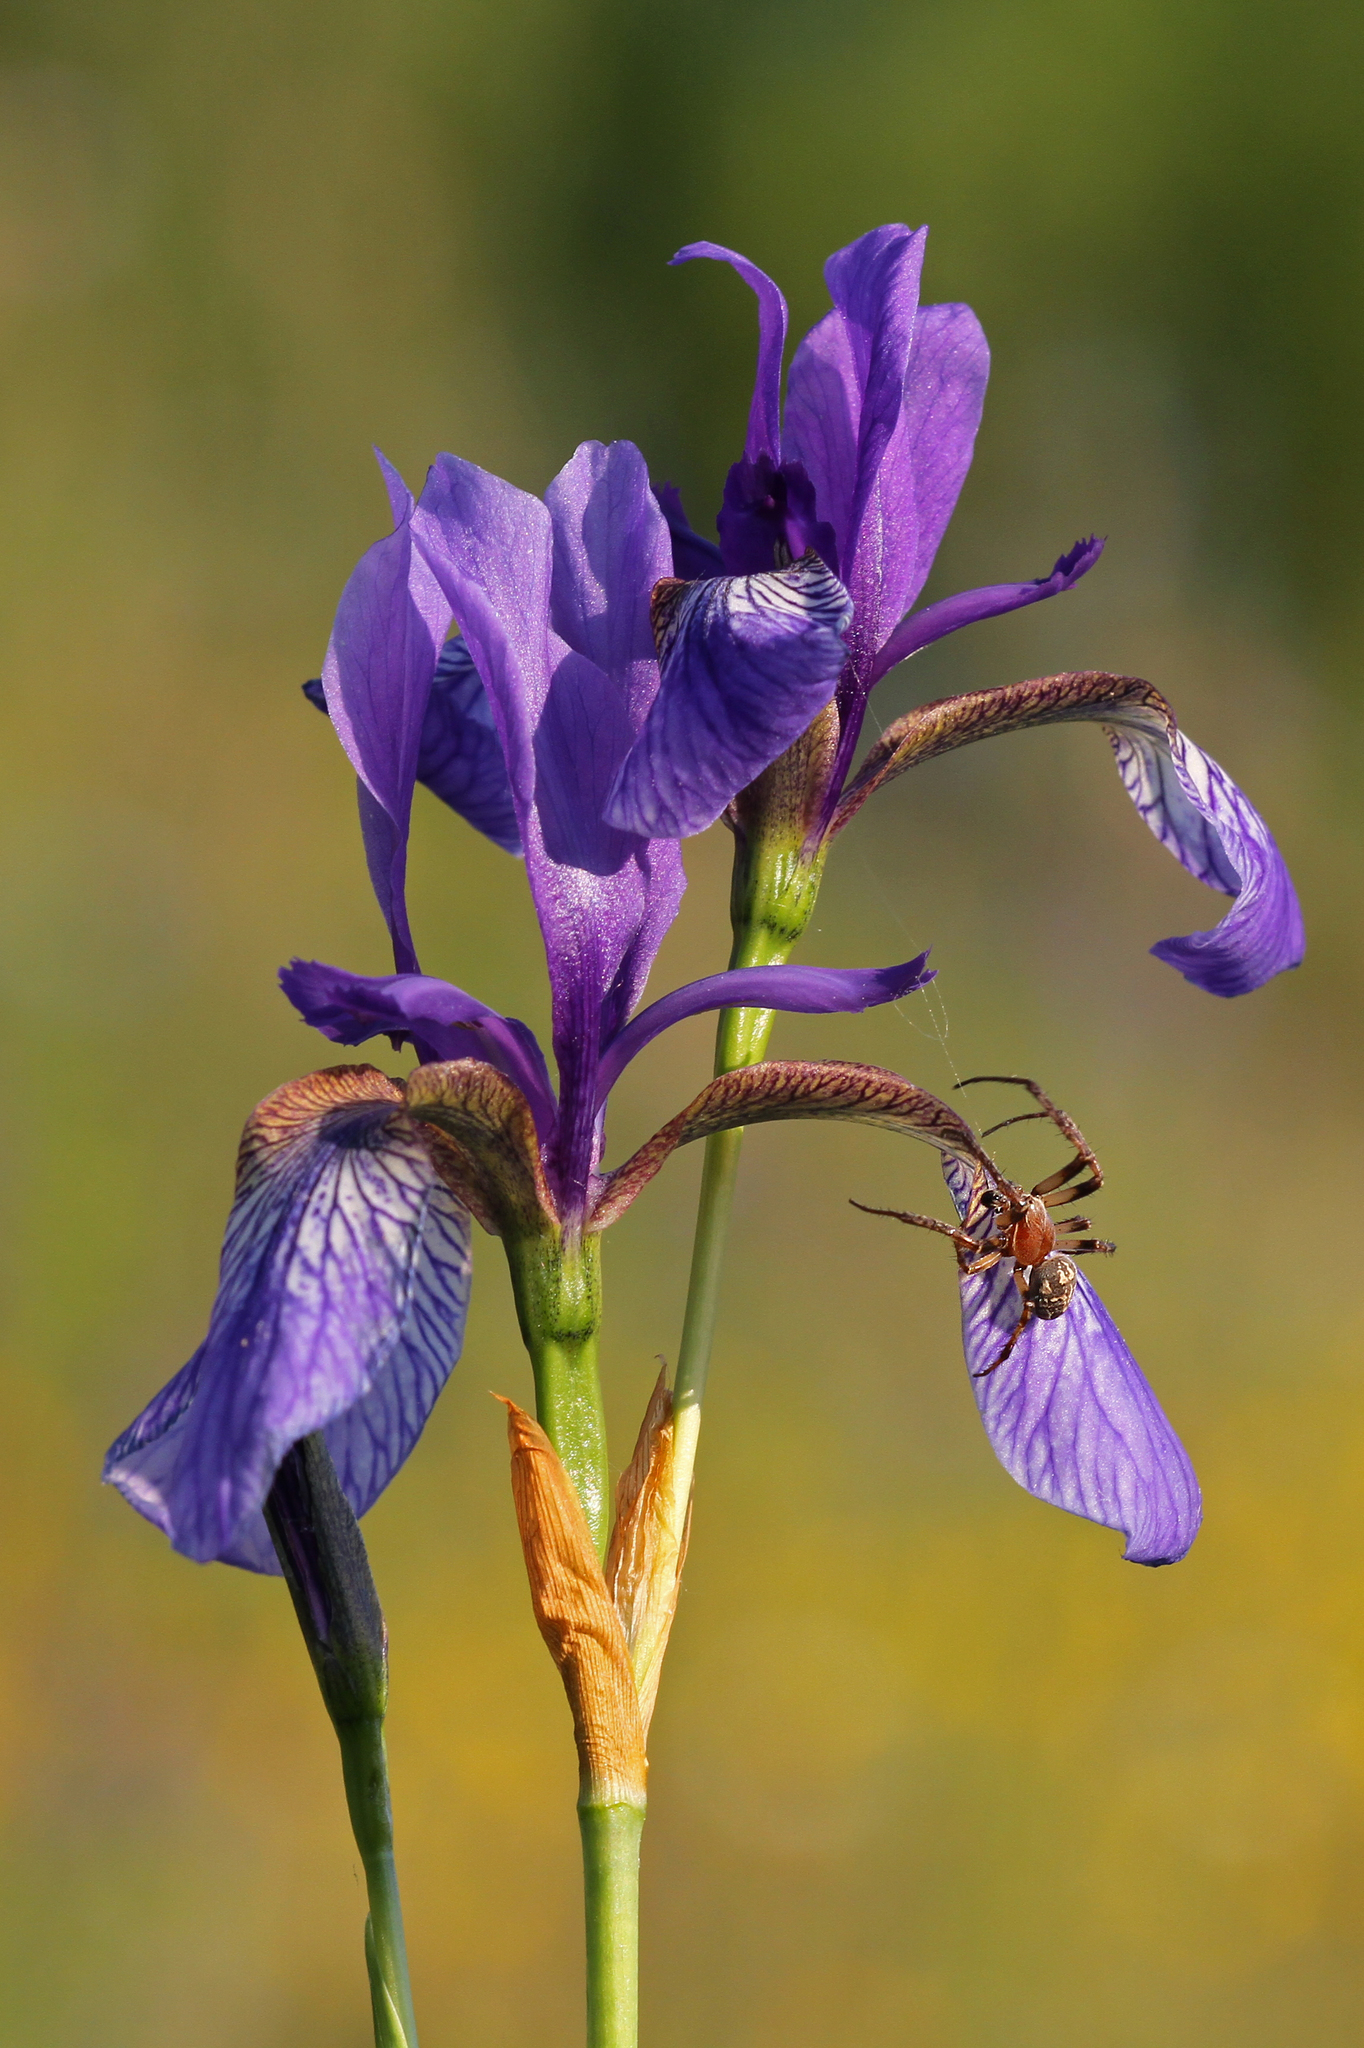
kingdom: Plantae
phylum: Tracheophyta
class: Liliopsida
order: Asparagales
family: Iridaceae
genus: Iris
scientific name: Iris sibirica
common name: Siberian iris
